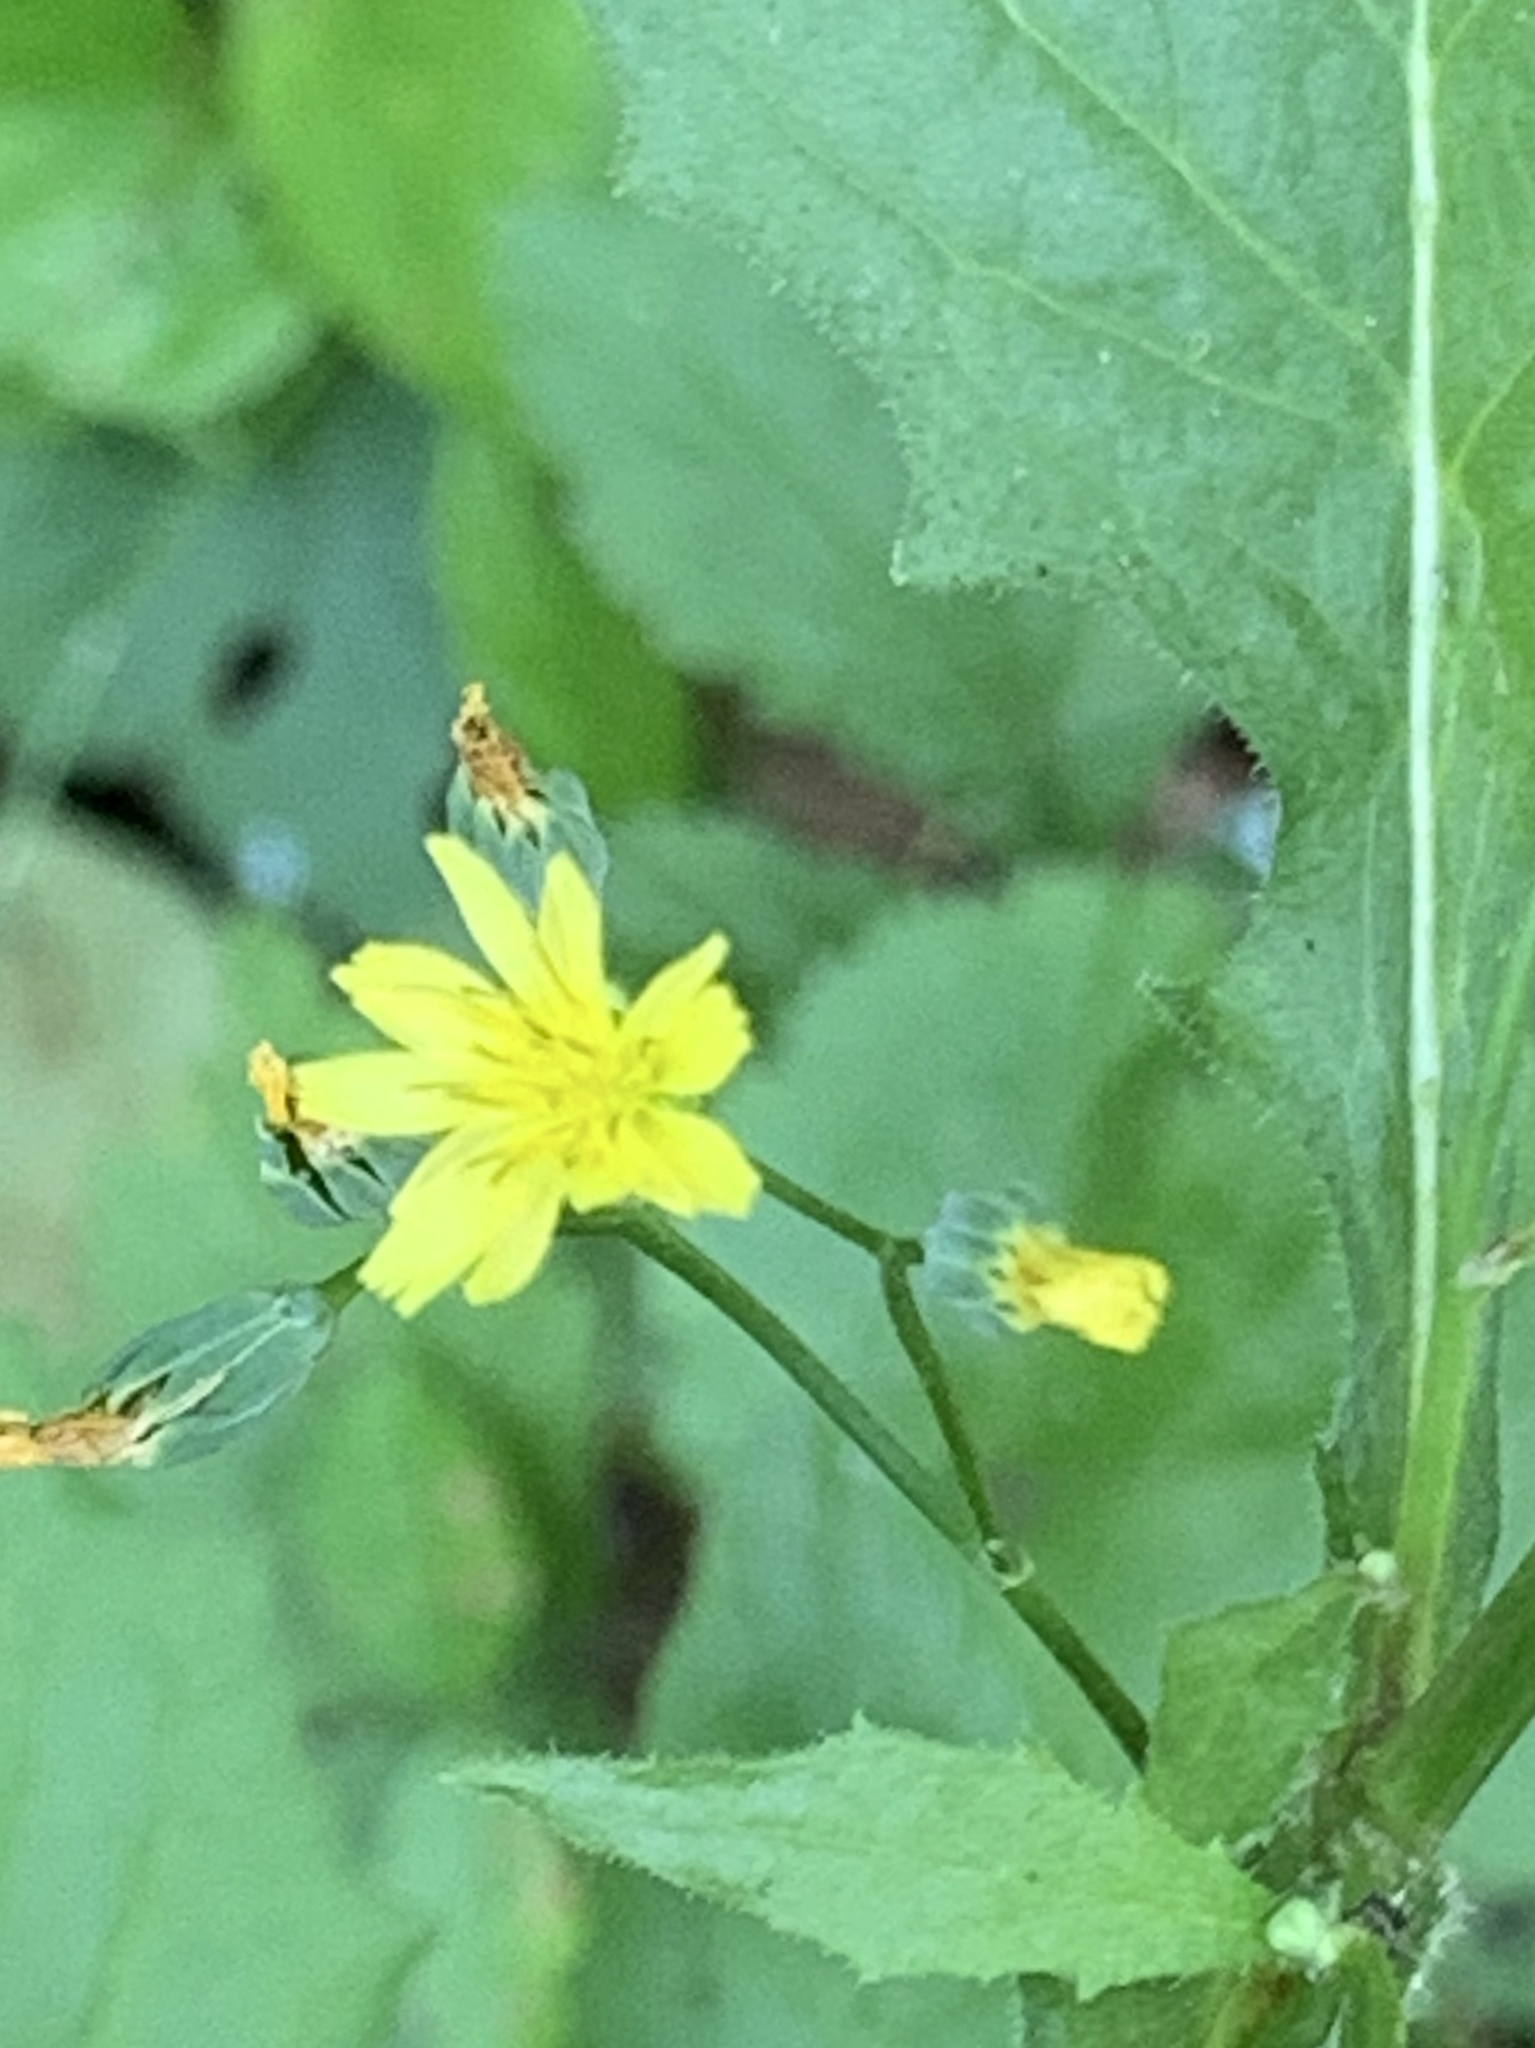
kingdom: Plantae
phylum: Tracheophyta
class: Magnoliopsida
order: Asterales
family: Asteraceae
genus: Lapsana
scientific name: Lapsana communis
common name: Nipplewort
